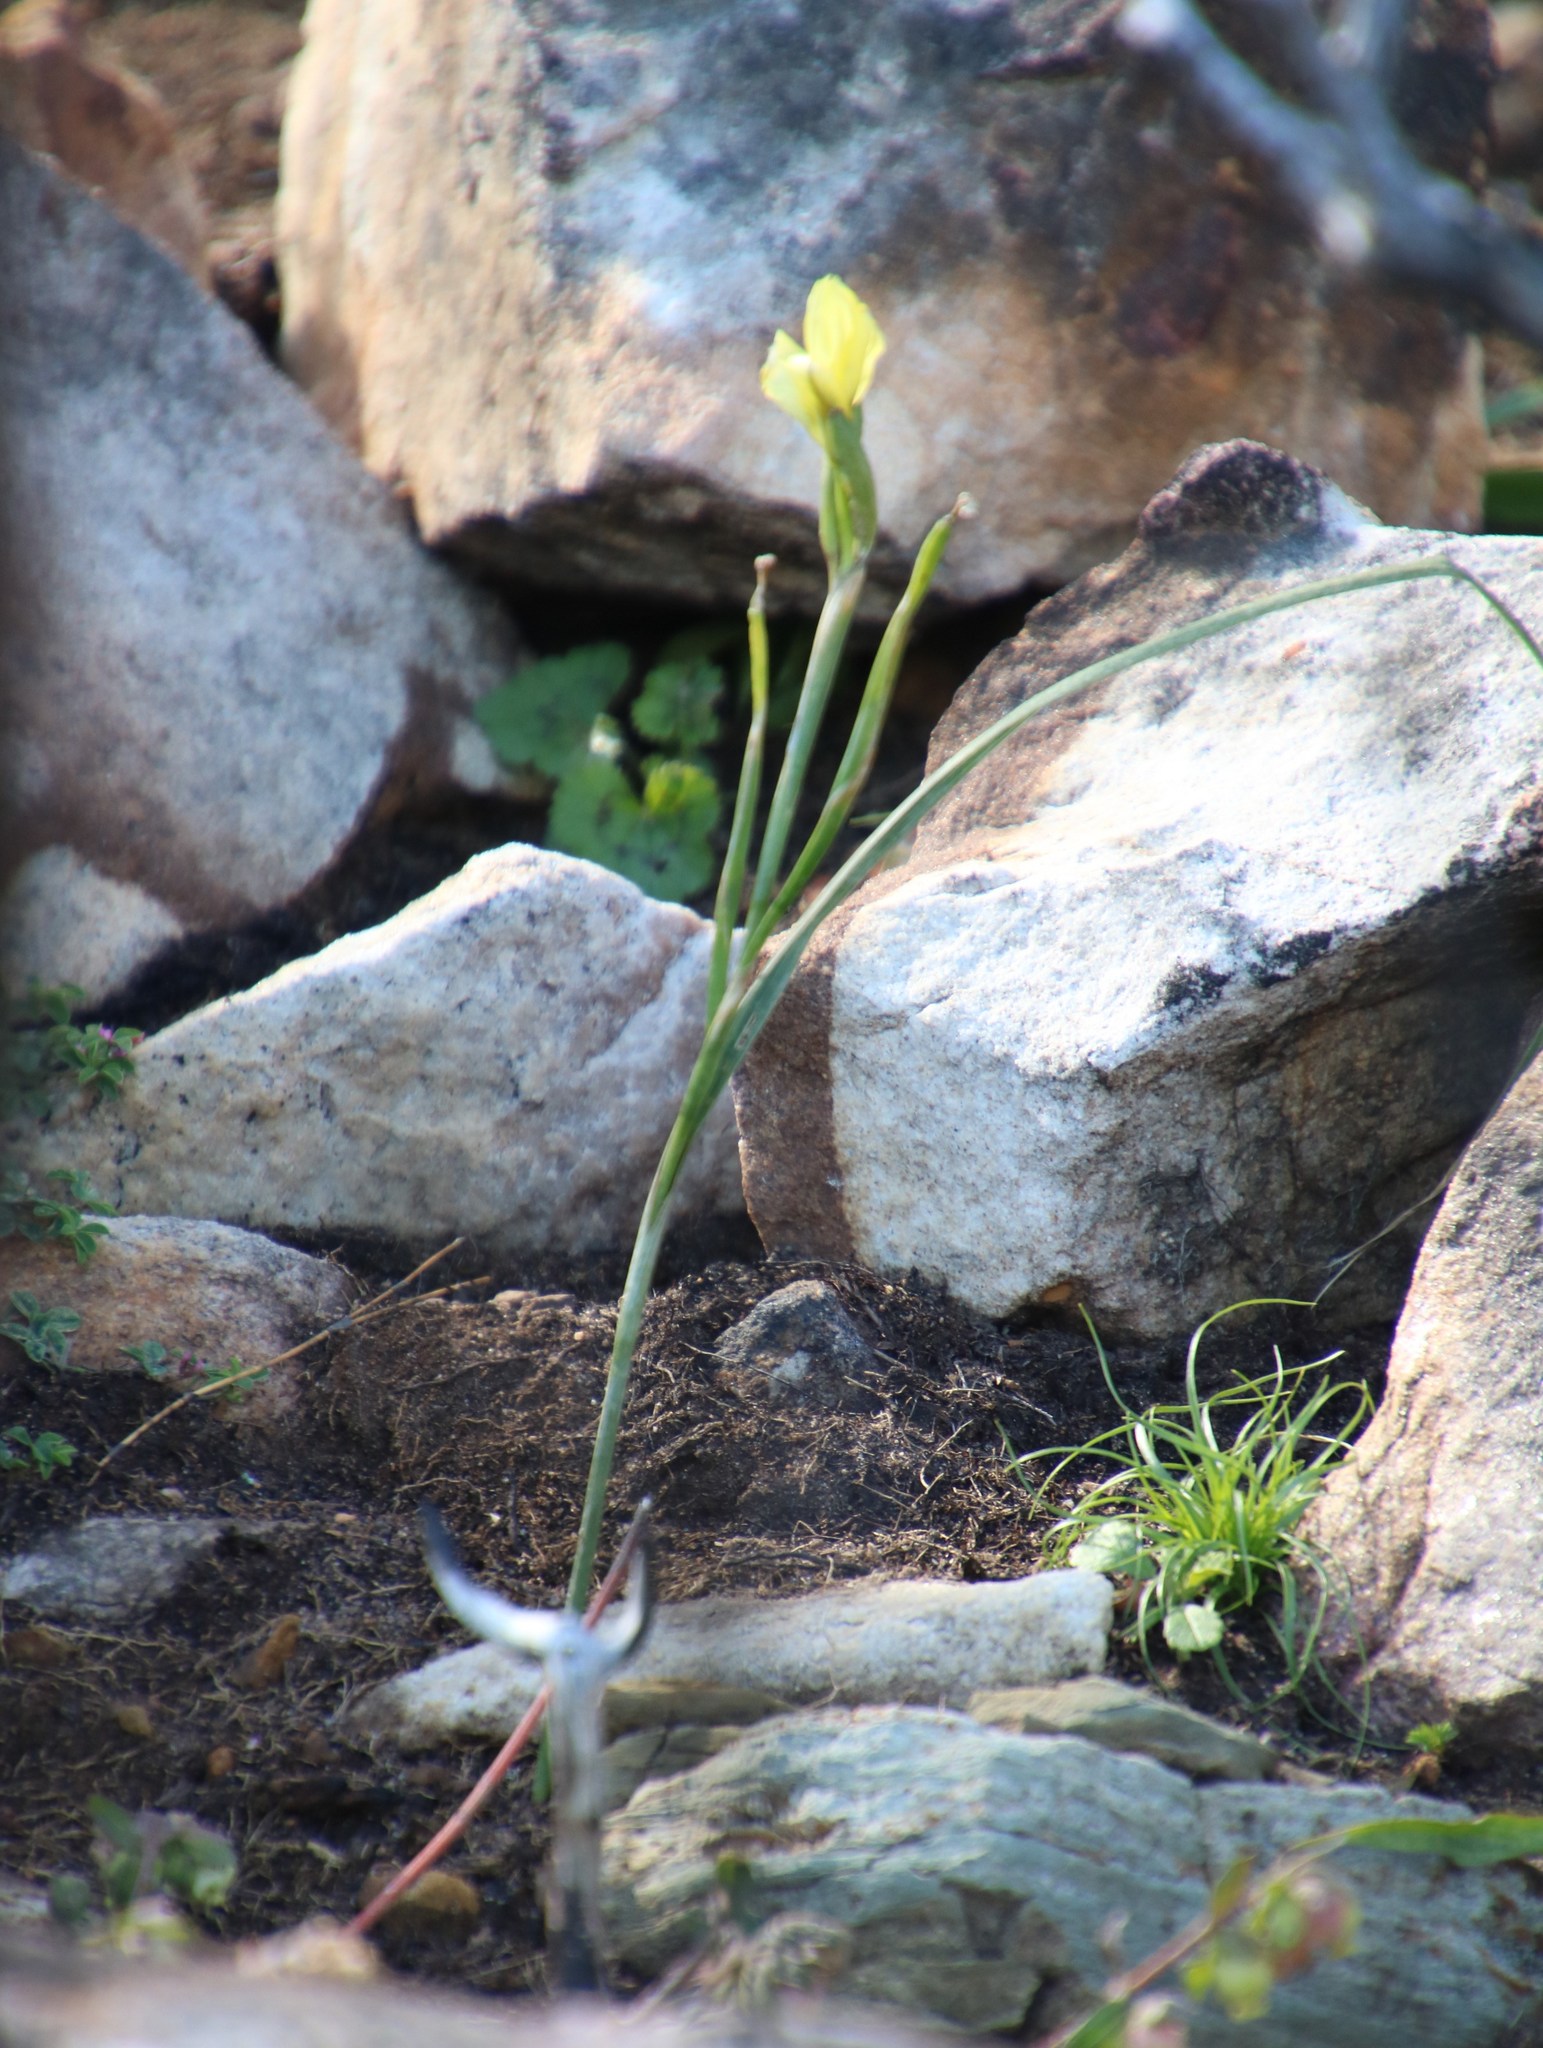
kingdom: Plantae
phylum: Tracheophyta
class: Liliopsida
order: Asparagales
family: Iridaceae
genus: Moraea
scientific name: Moraea ochroleuca
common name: Red tulp
